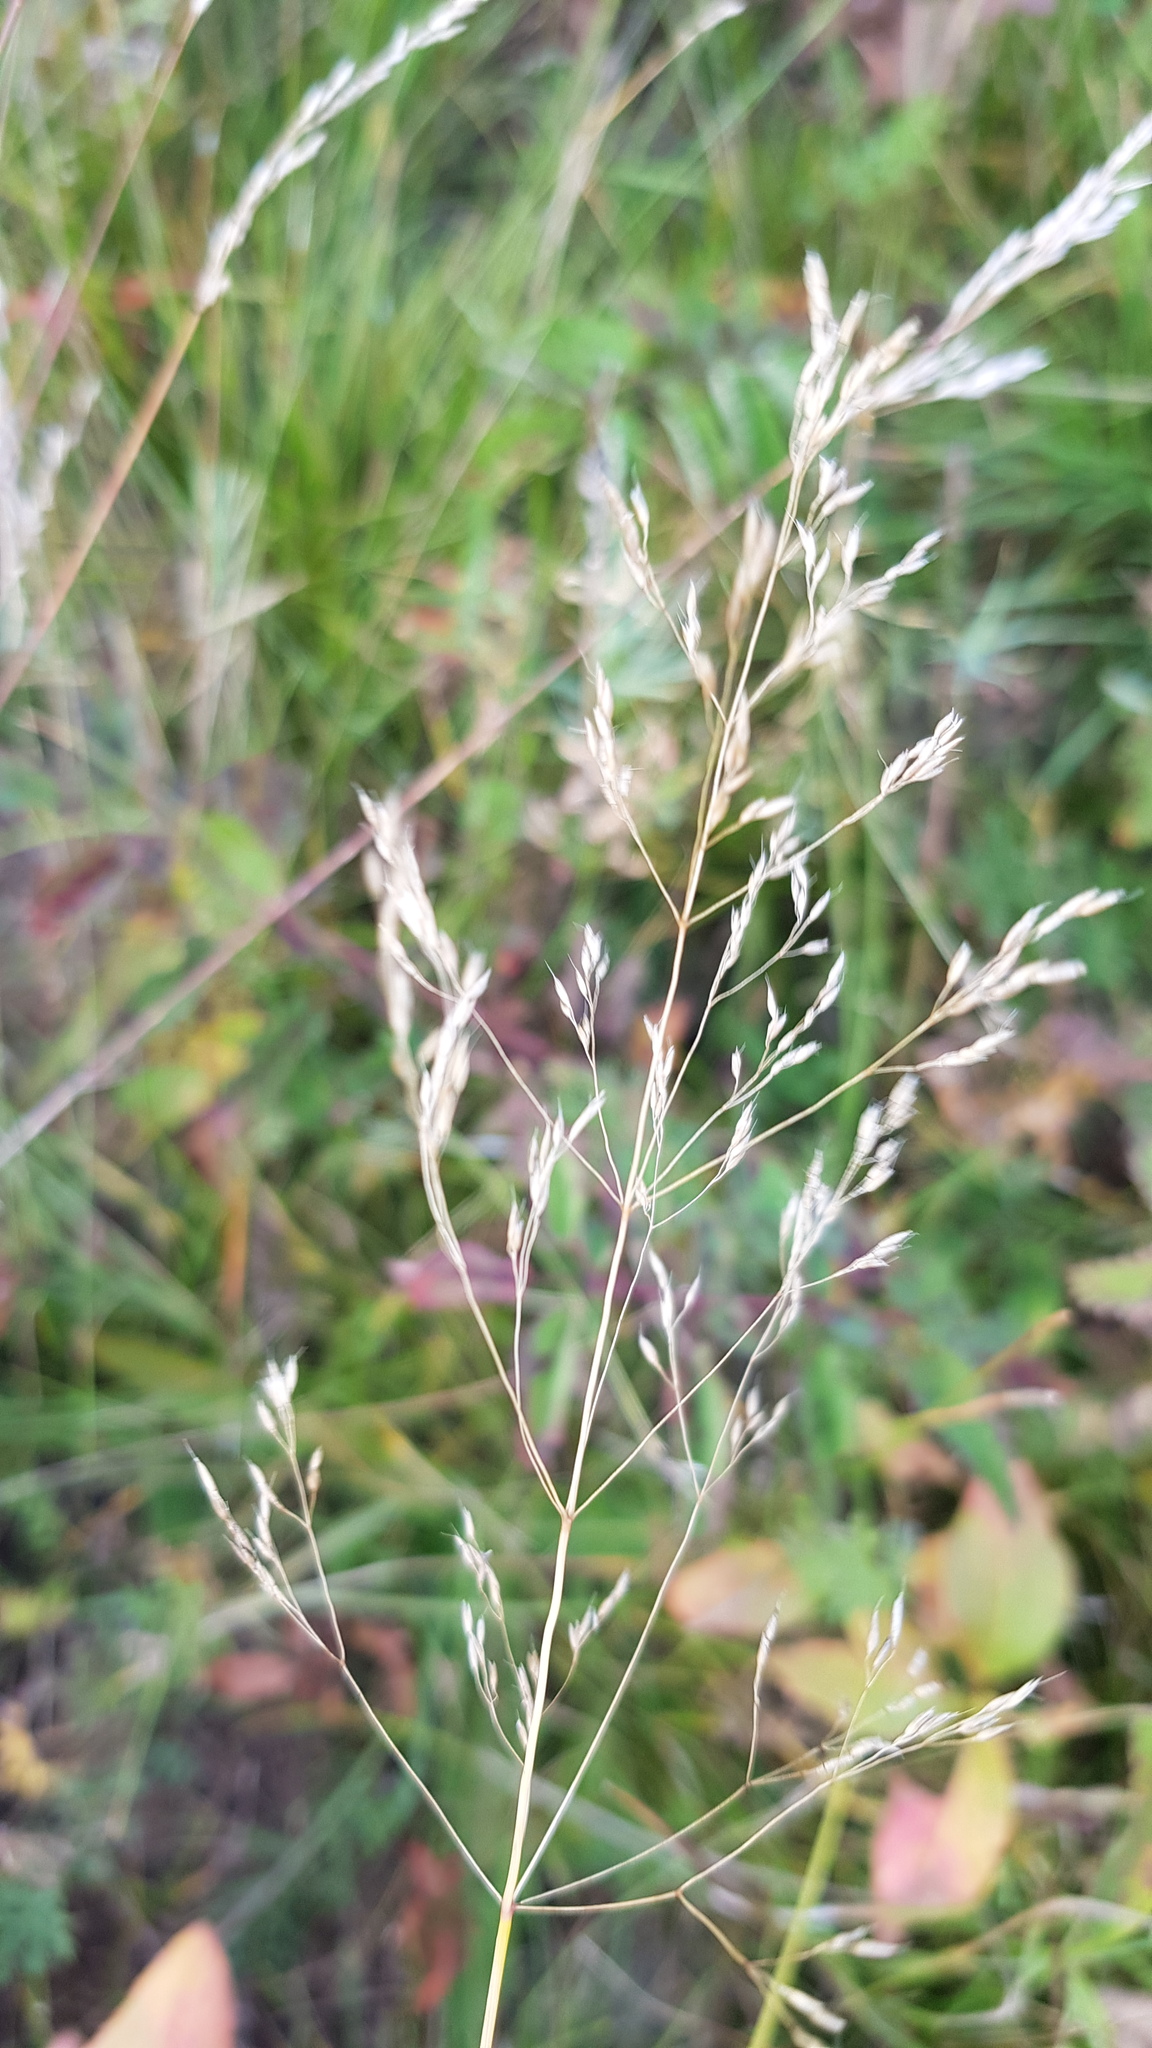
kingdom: Plantae
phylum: Tracheophyta
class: Liliopsida
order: Poales
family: Poaceae
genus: Poa
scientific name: Poa pratensis
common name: Kentucky bluegrass
